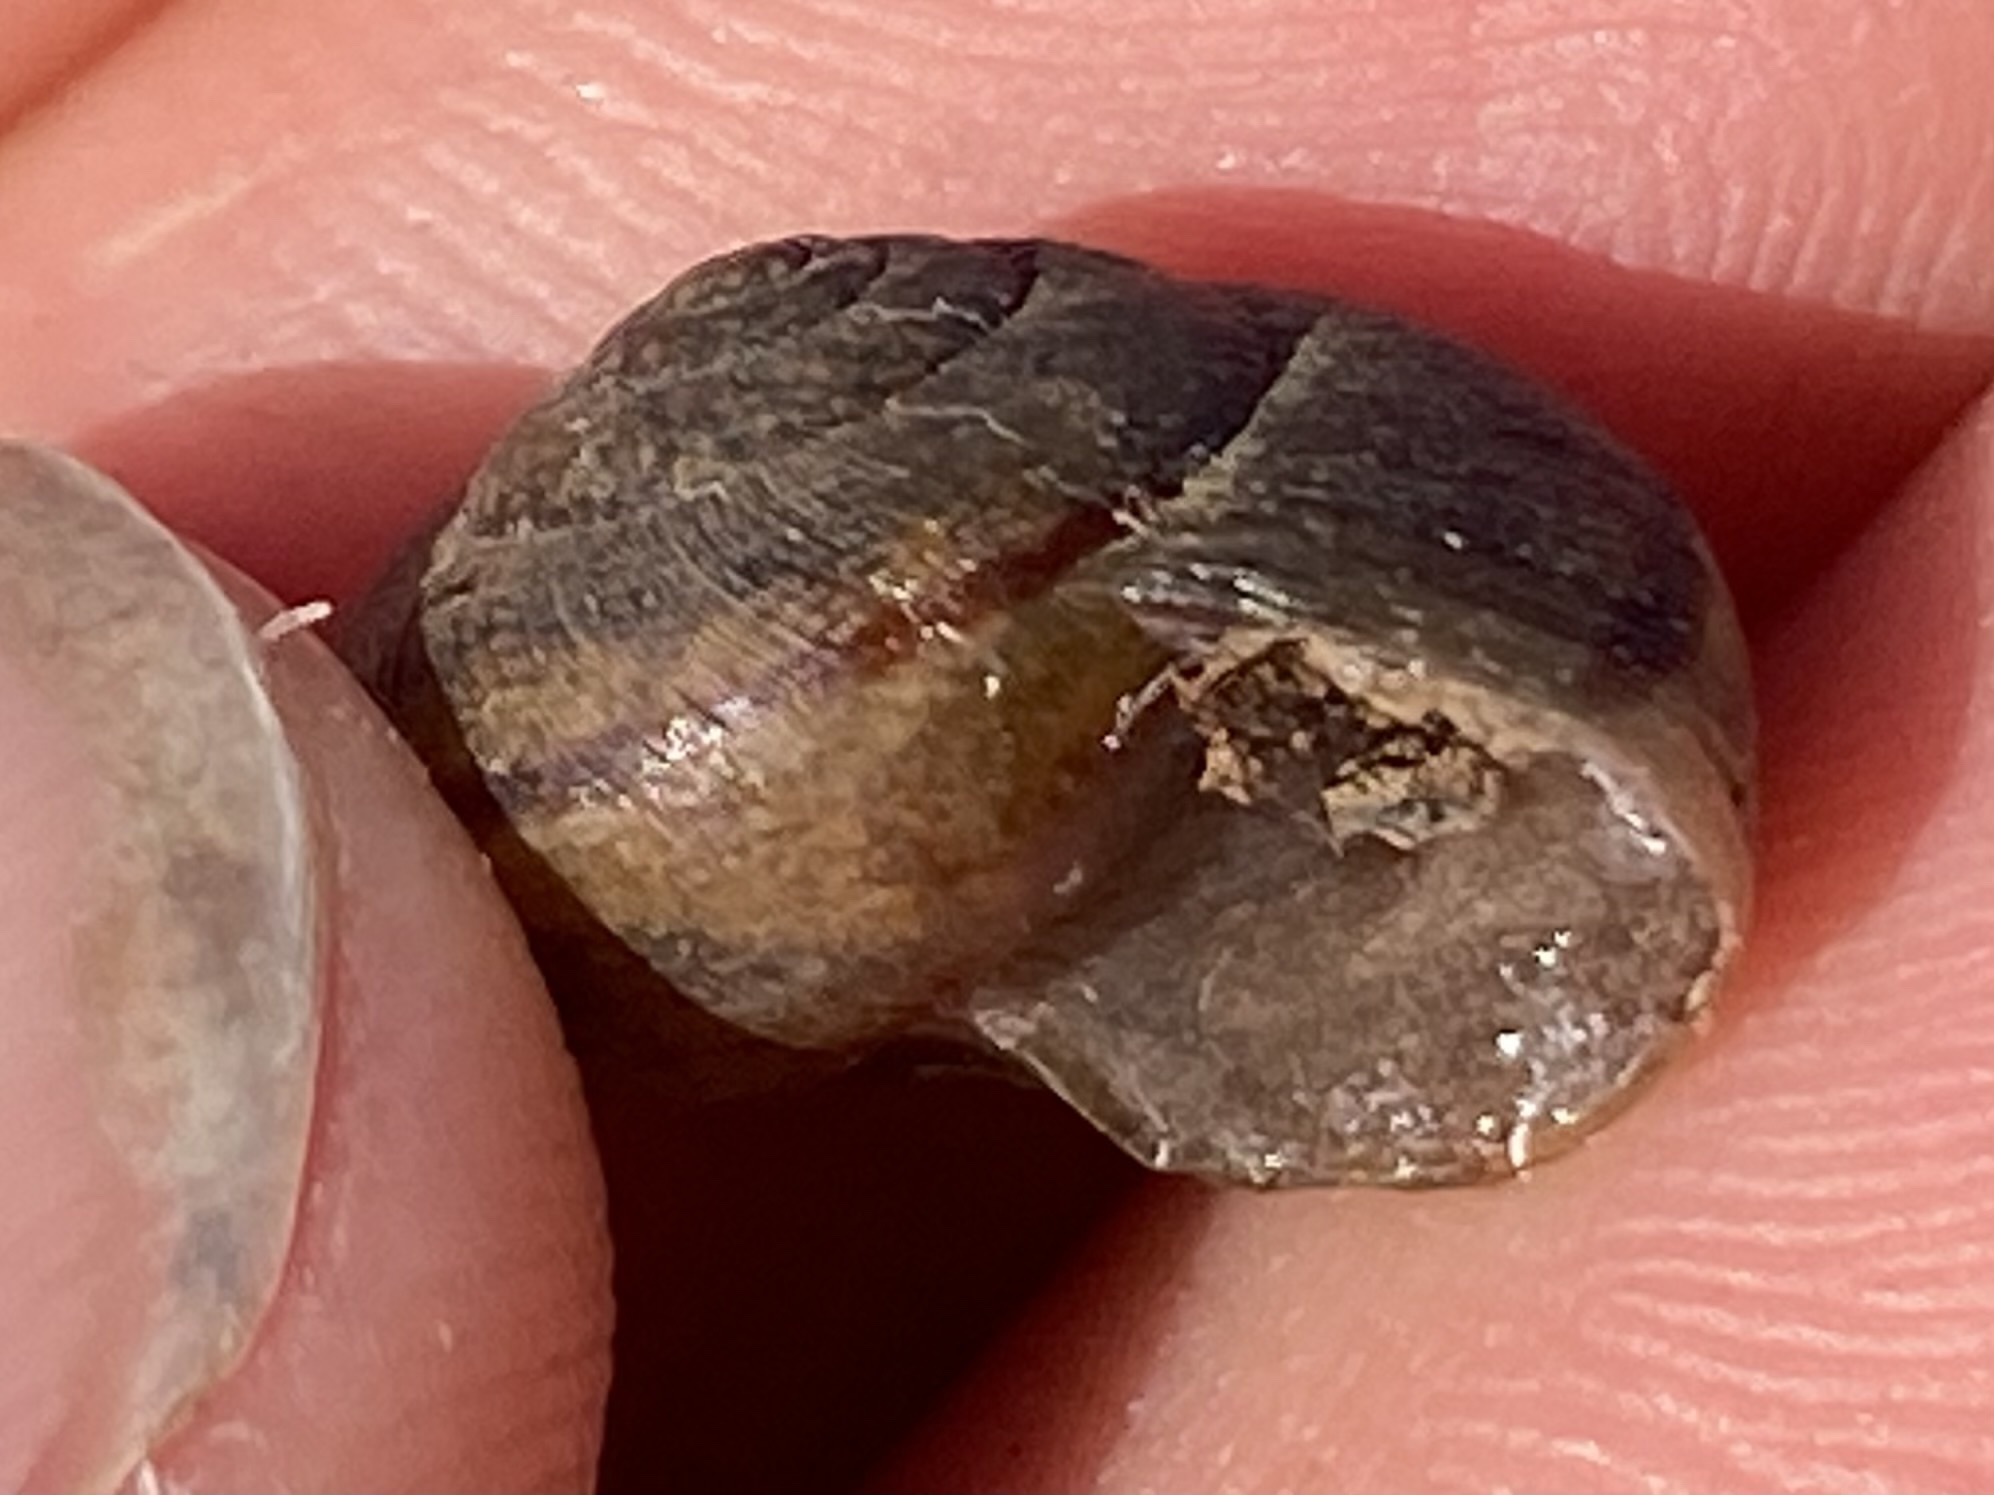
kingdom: Animalia
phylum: Mollusca
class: Gastropoda
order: Stylommatophora
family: Xanthonychidae
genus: Helminthoglypta
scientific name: Helminthoglypta nickliniana
